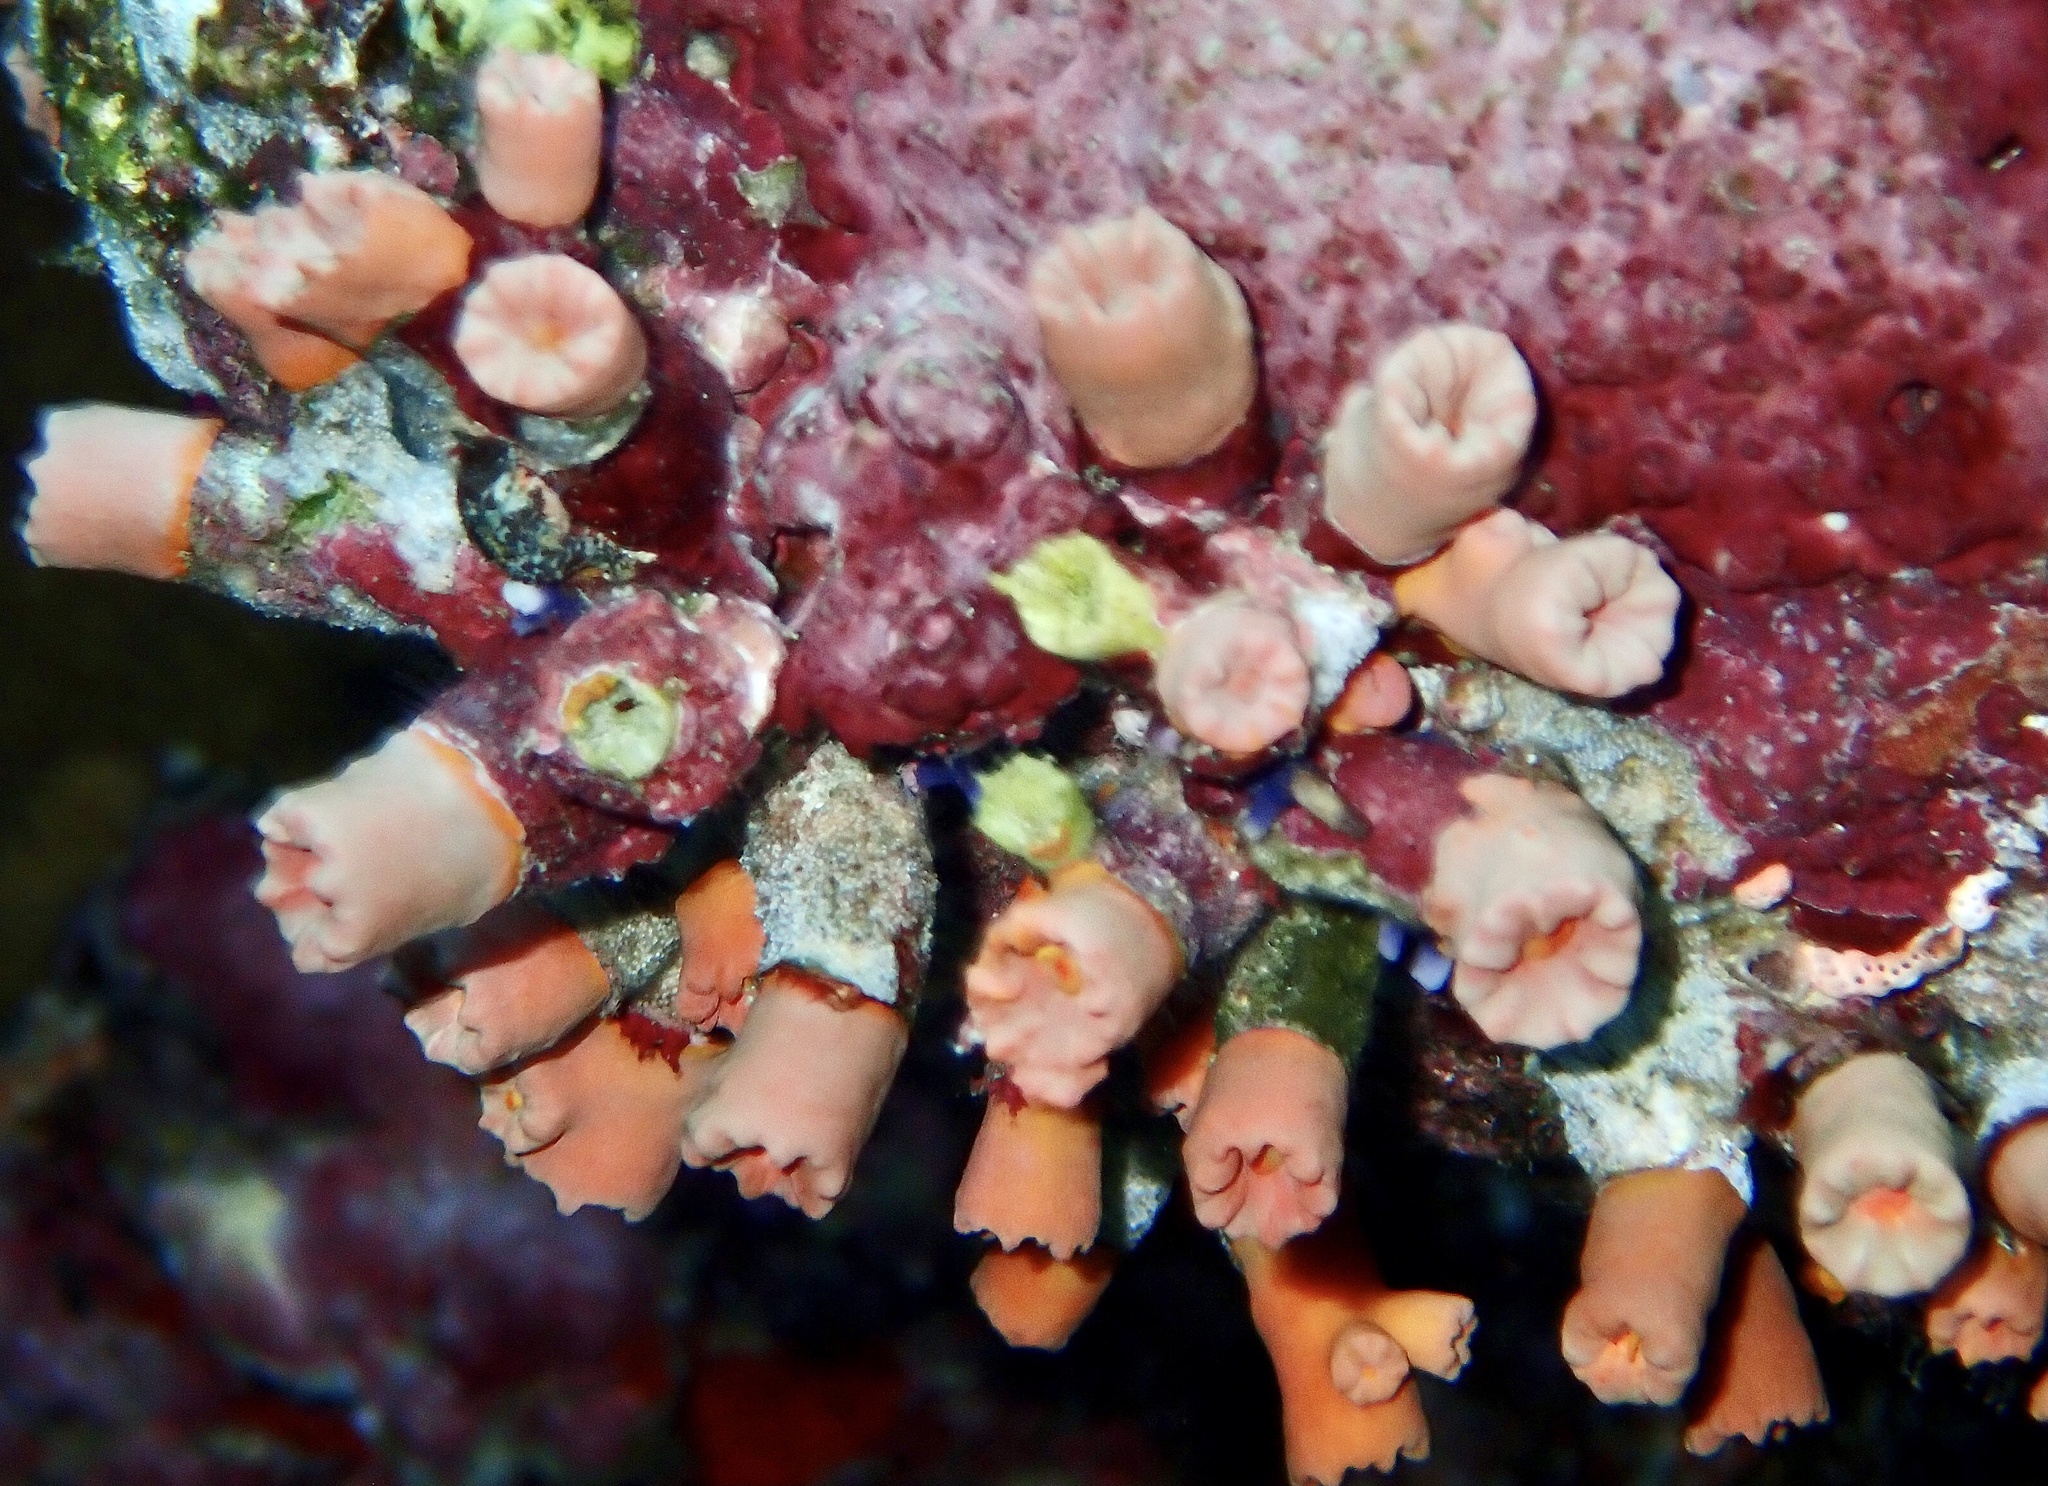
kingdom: Animalia
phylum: Cnidaria
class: Anthozoa
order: Scleractinia
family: Dendrophylliidae
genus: Cladopsammia
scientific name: Cladopsammia gracilis
